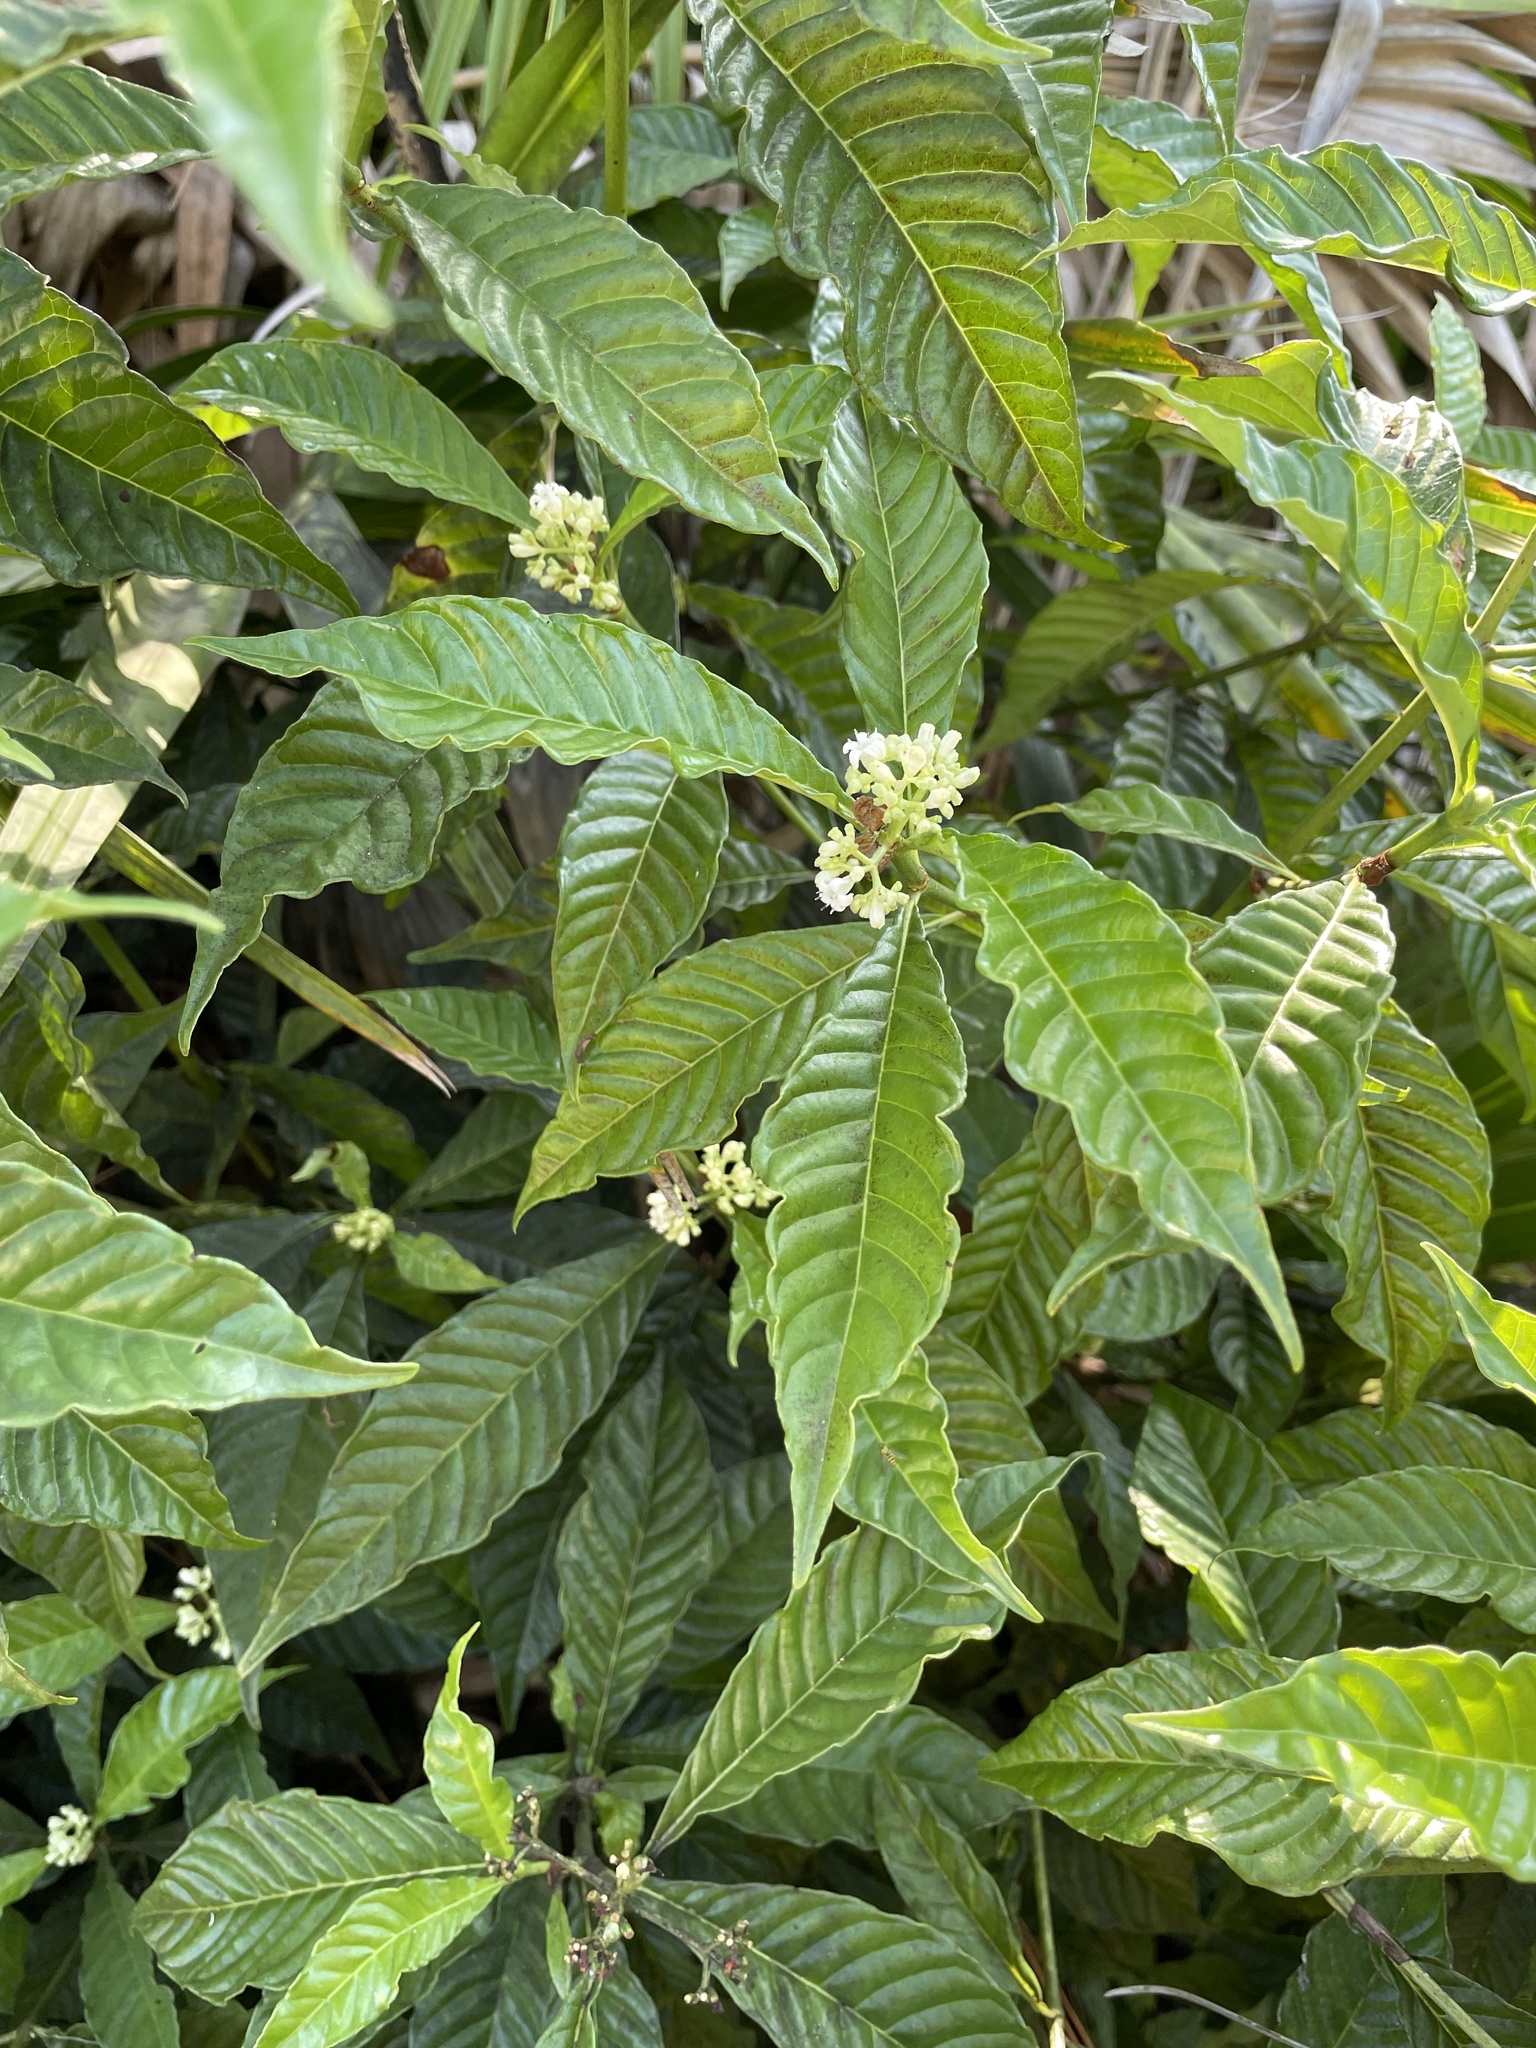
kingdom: Plantae
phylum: Tracheophyta
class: Magnoliopsida
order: Gentianales
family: Rubiaceae
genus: Psychotria
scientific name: Psychotria nervosa
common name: Bastard cankerberry
